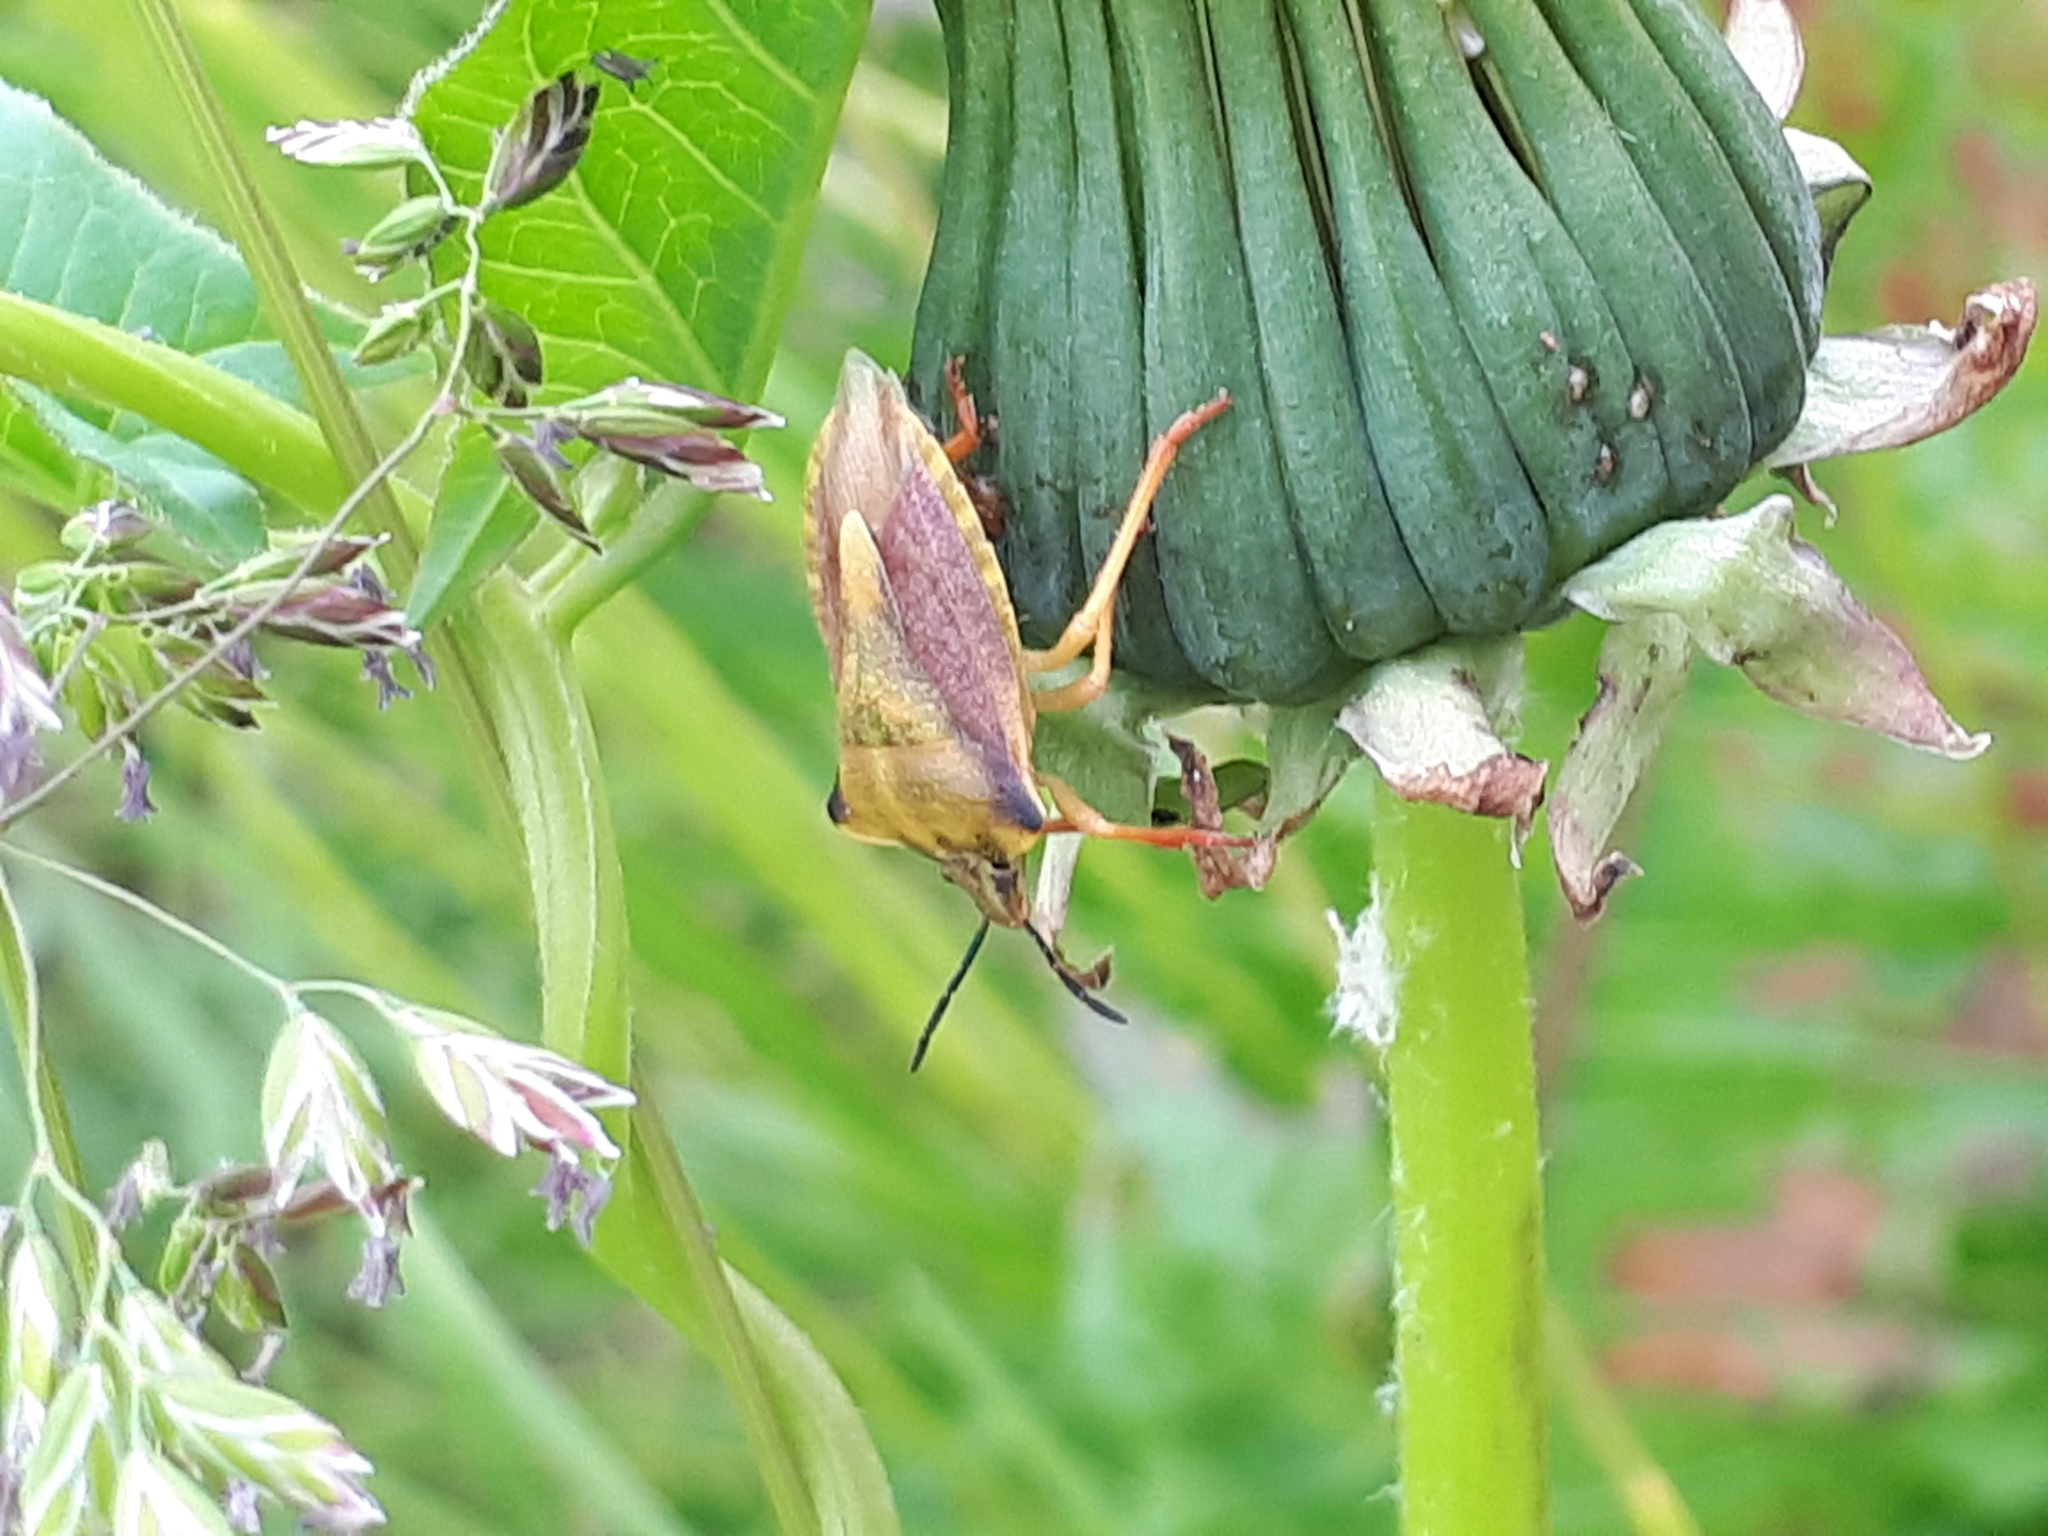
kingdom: Animalia
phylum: Arthropoda
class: Insecta
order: Hemiptera
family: Pentatomidae
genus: Carpocoris
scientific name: Carpocoris fuscispinus
